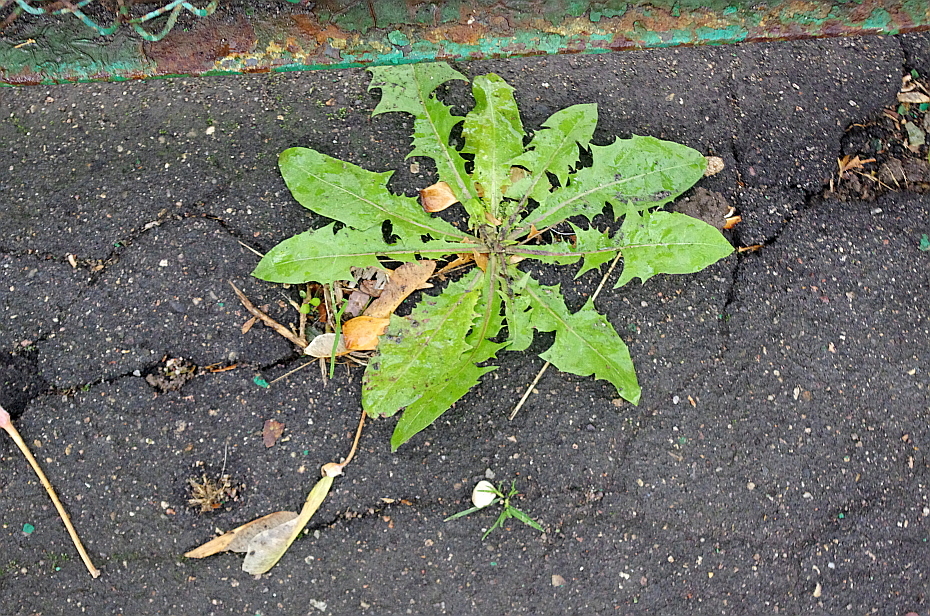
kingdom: Plantae
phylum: Tracheophyta
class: Magnoliopsida
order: Asterales
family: Asteraceae
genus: Taraxacum
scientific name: Taraxacum officinale
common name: Common dandelion
